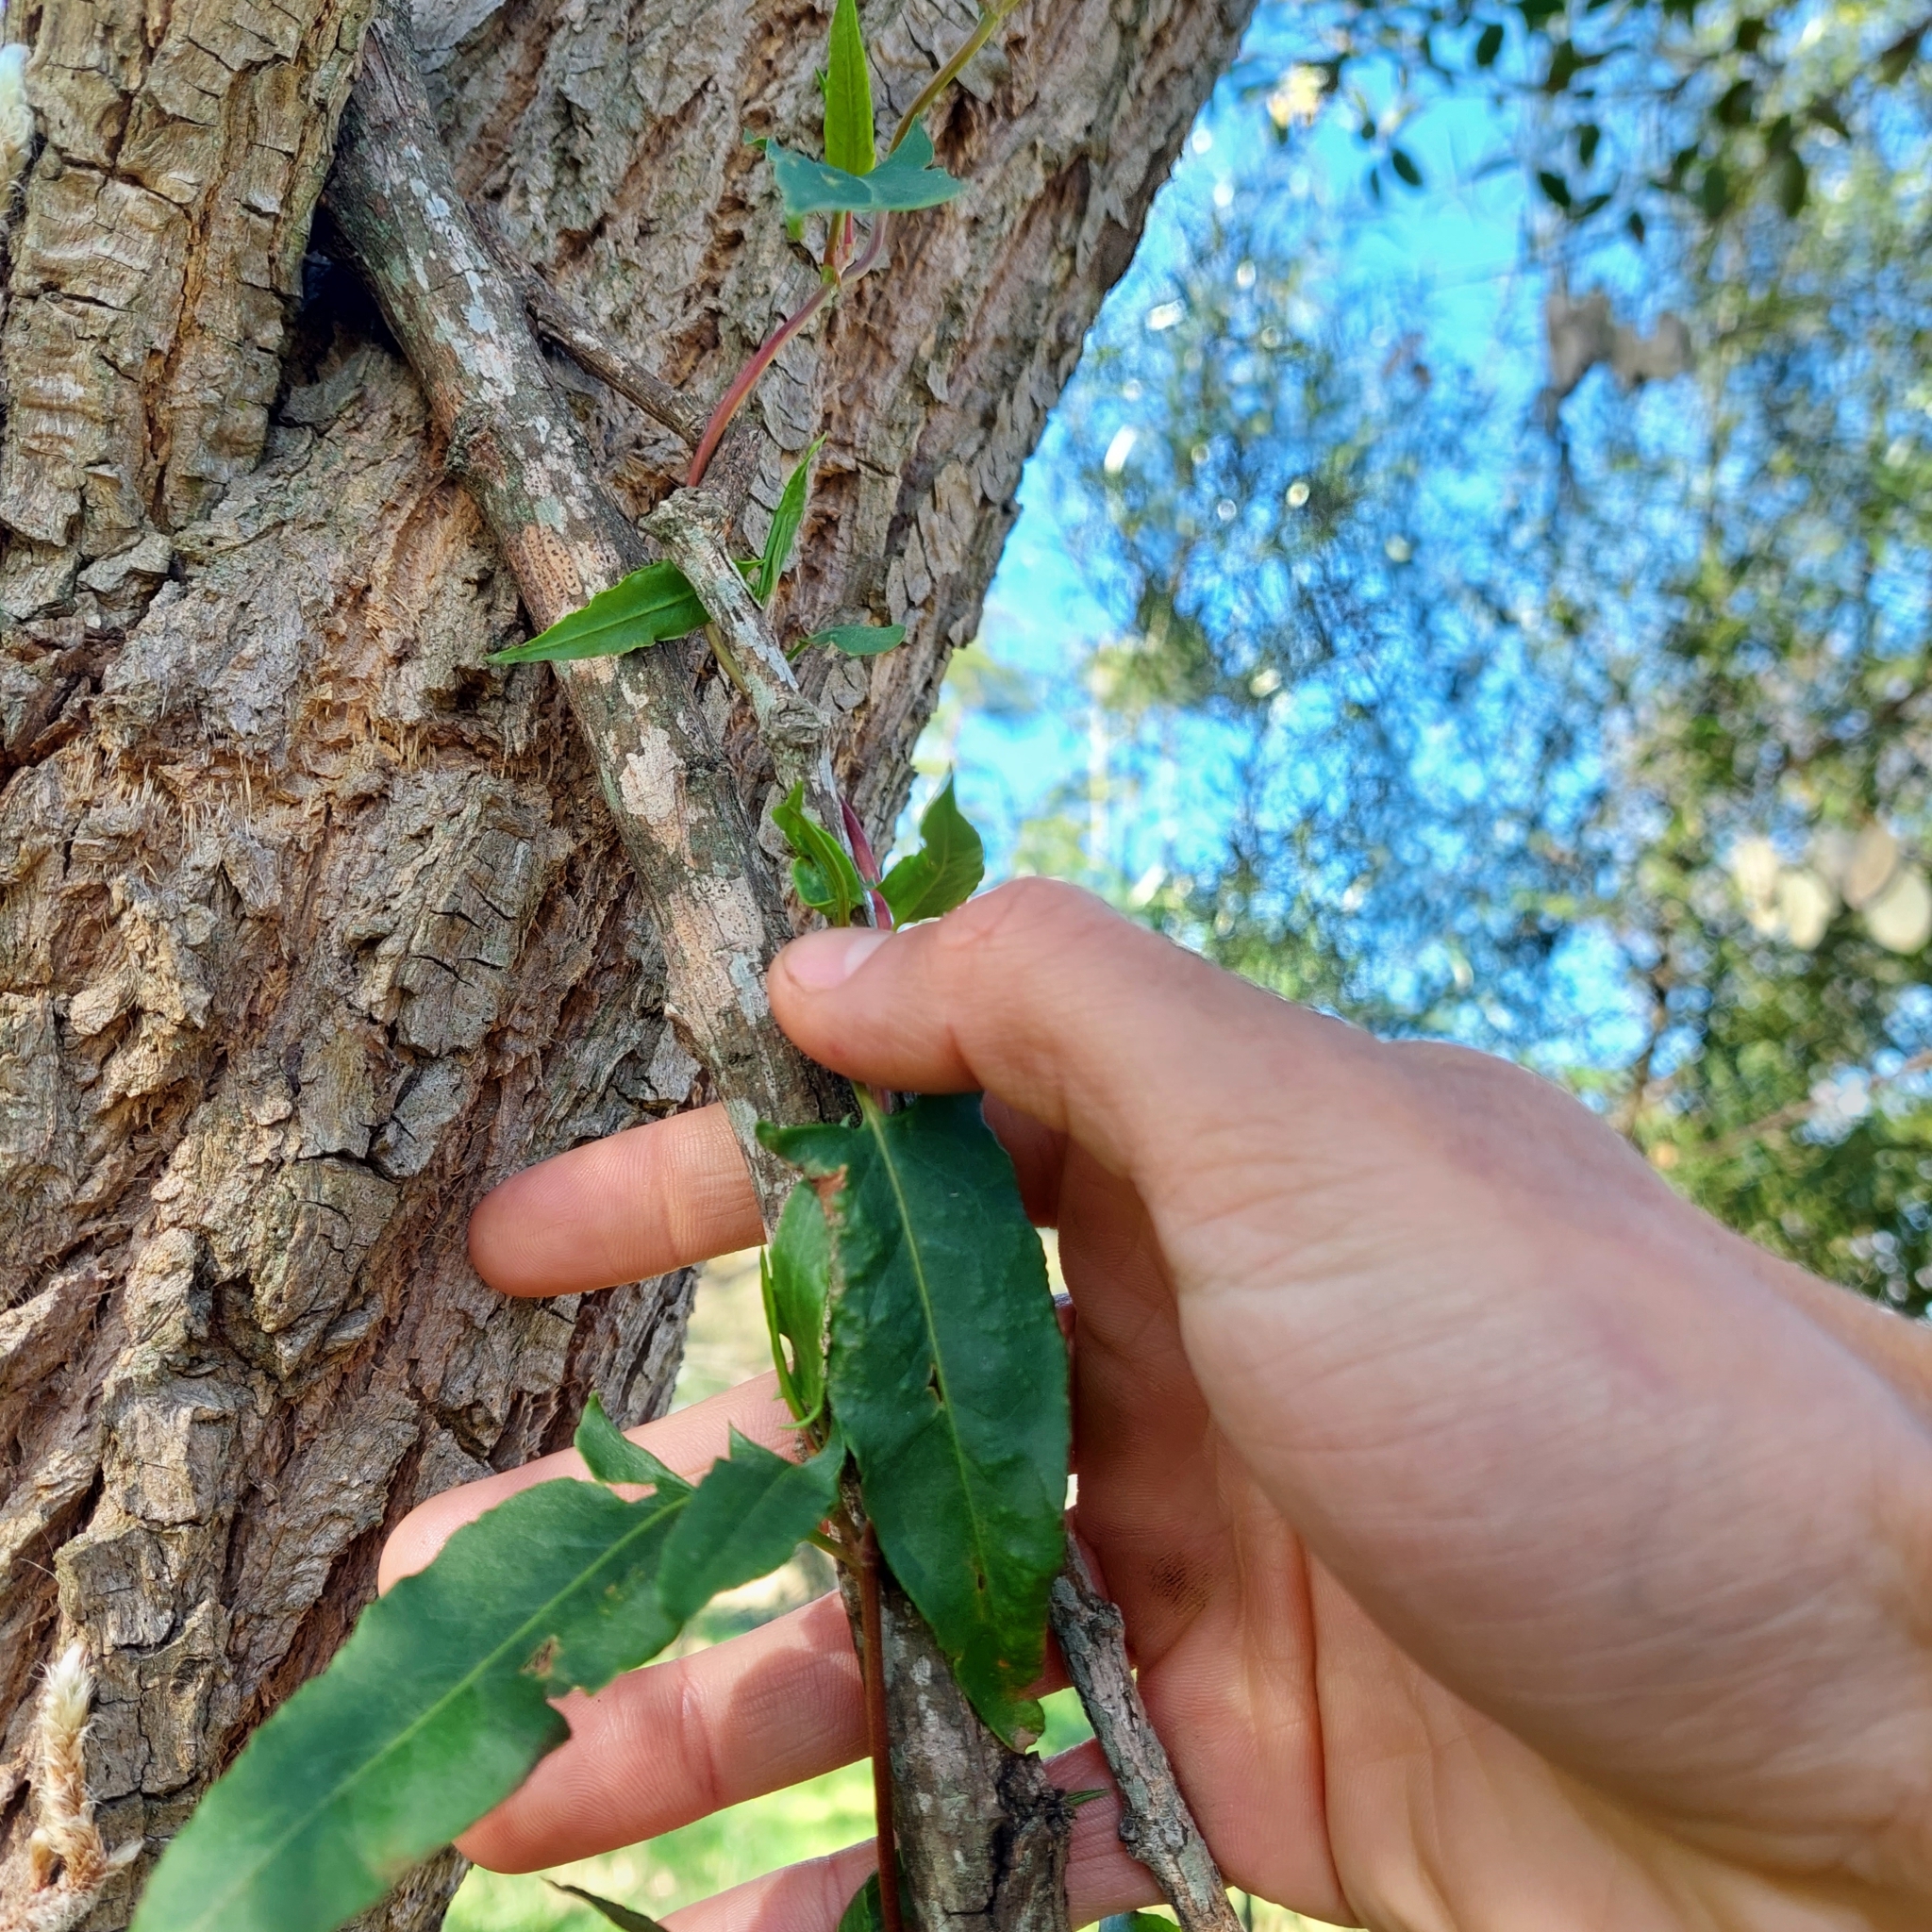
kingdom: Plantae
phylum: Tracheophyta
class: Magnoliopsida
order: Caryophyllales
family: Polygonaceae
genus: Muehlenbeckia
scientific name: Muehlenbeckia sagittifolia
